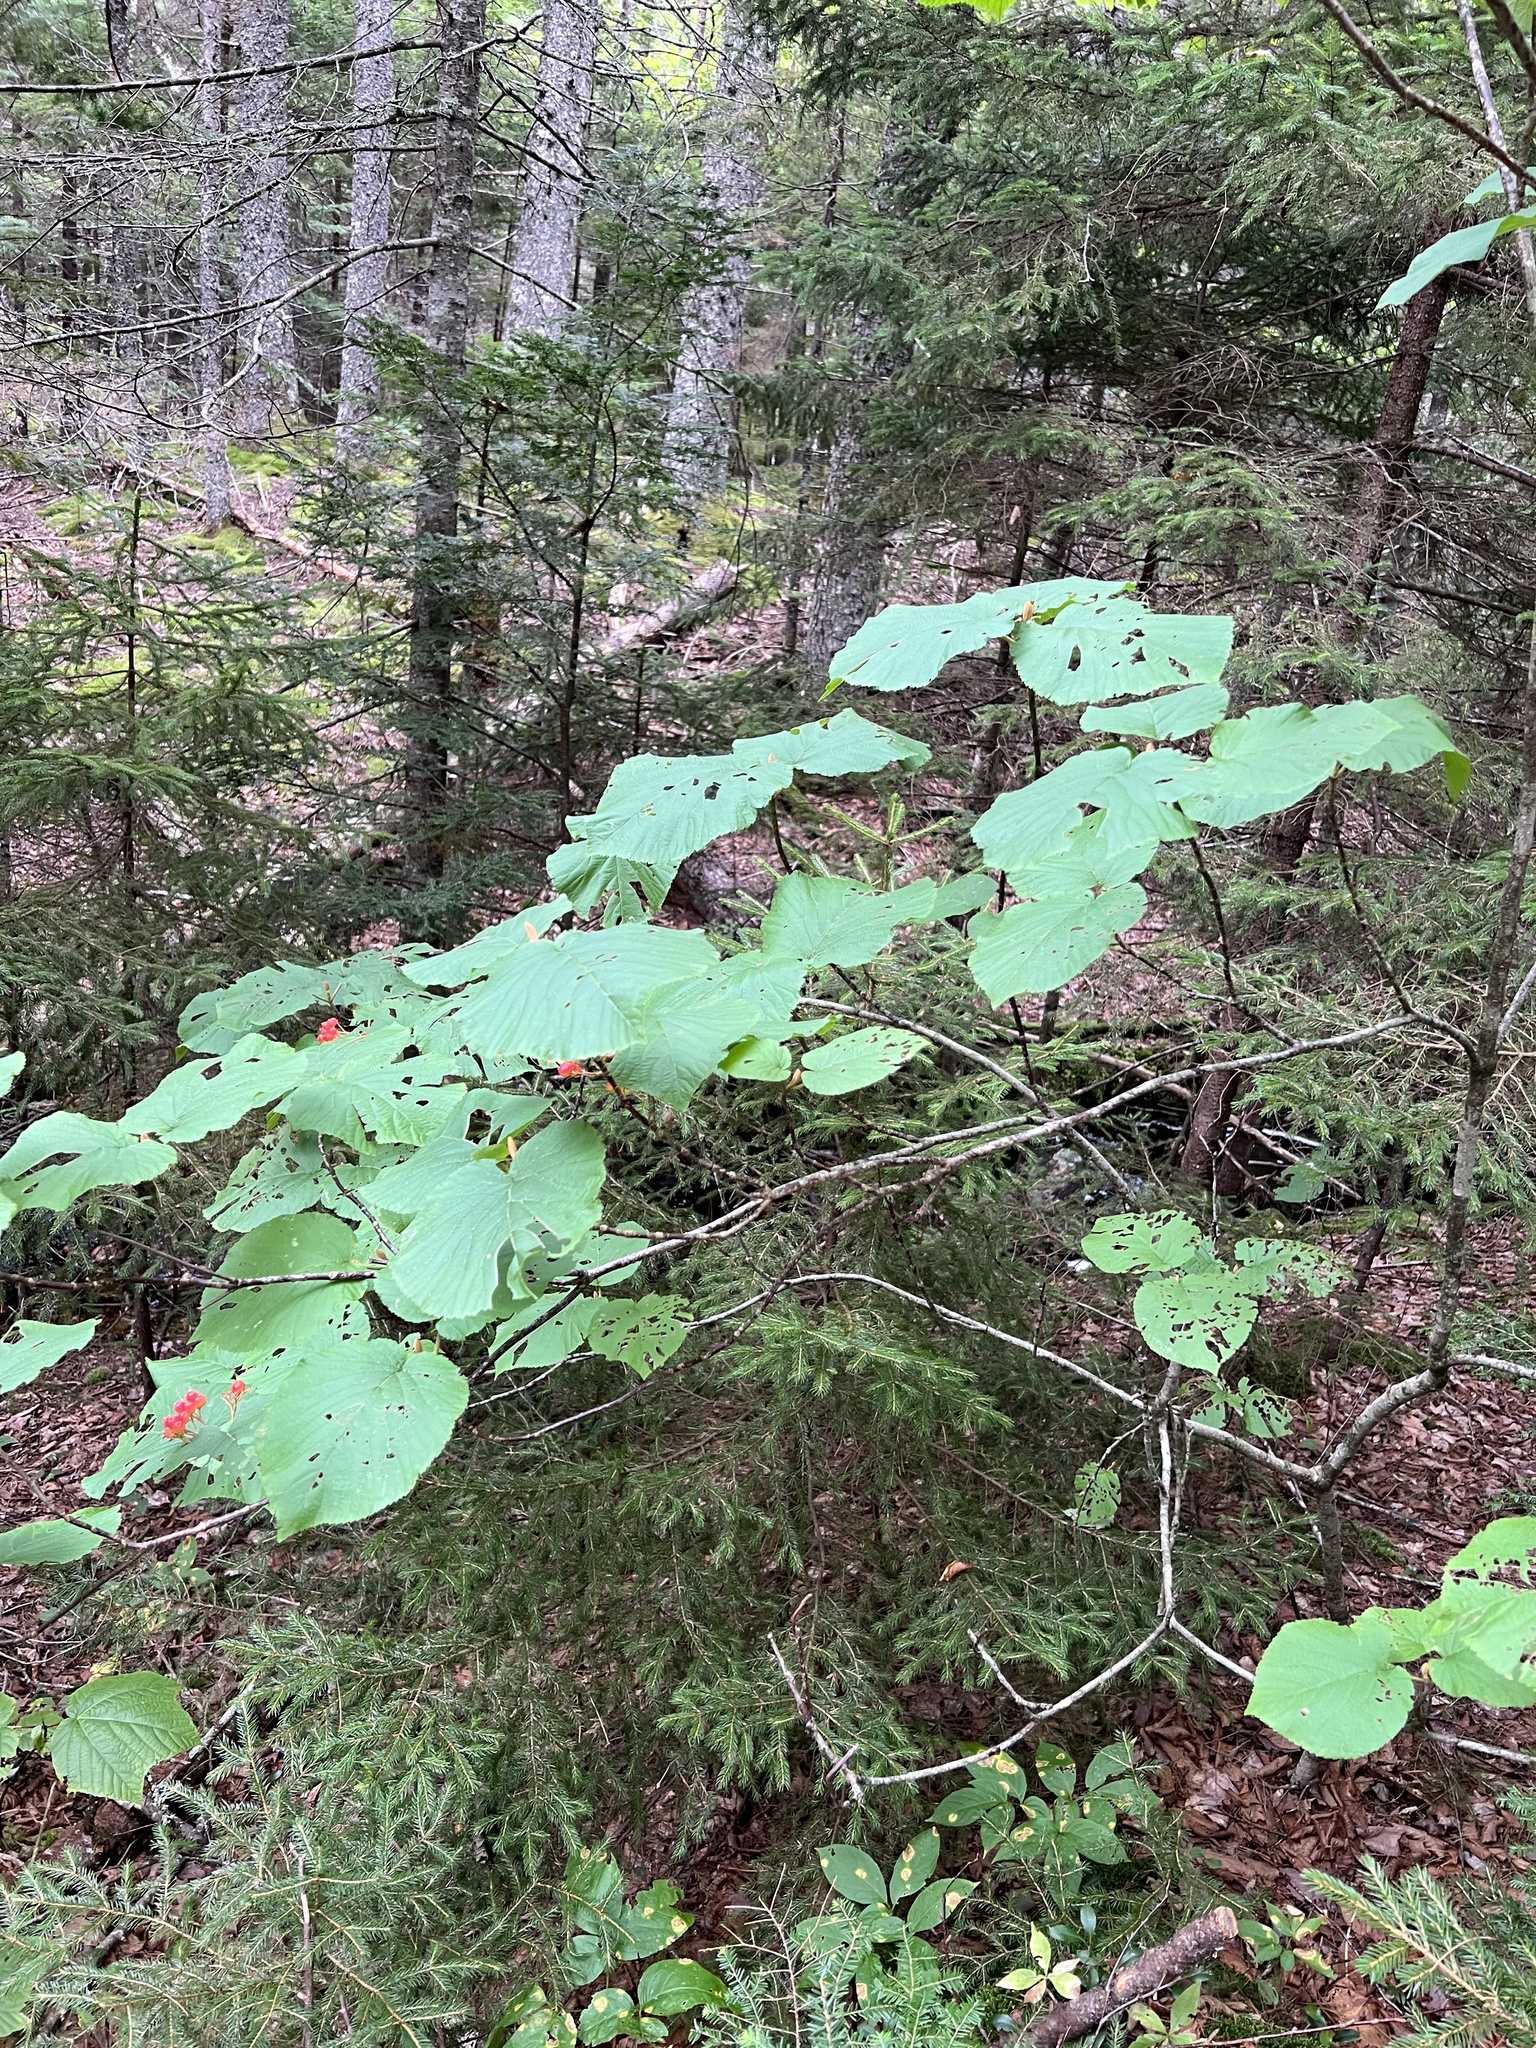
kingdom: Plantae
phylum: Tracheophyta
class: Magnoliopsida
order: Dipsacales
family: Viburnaceae
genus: Viburnum
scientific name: Viburnum lantanoides
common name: Hobblebush
